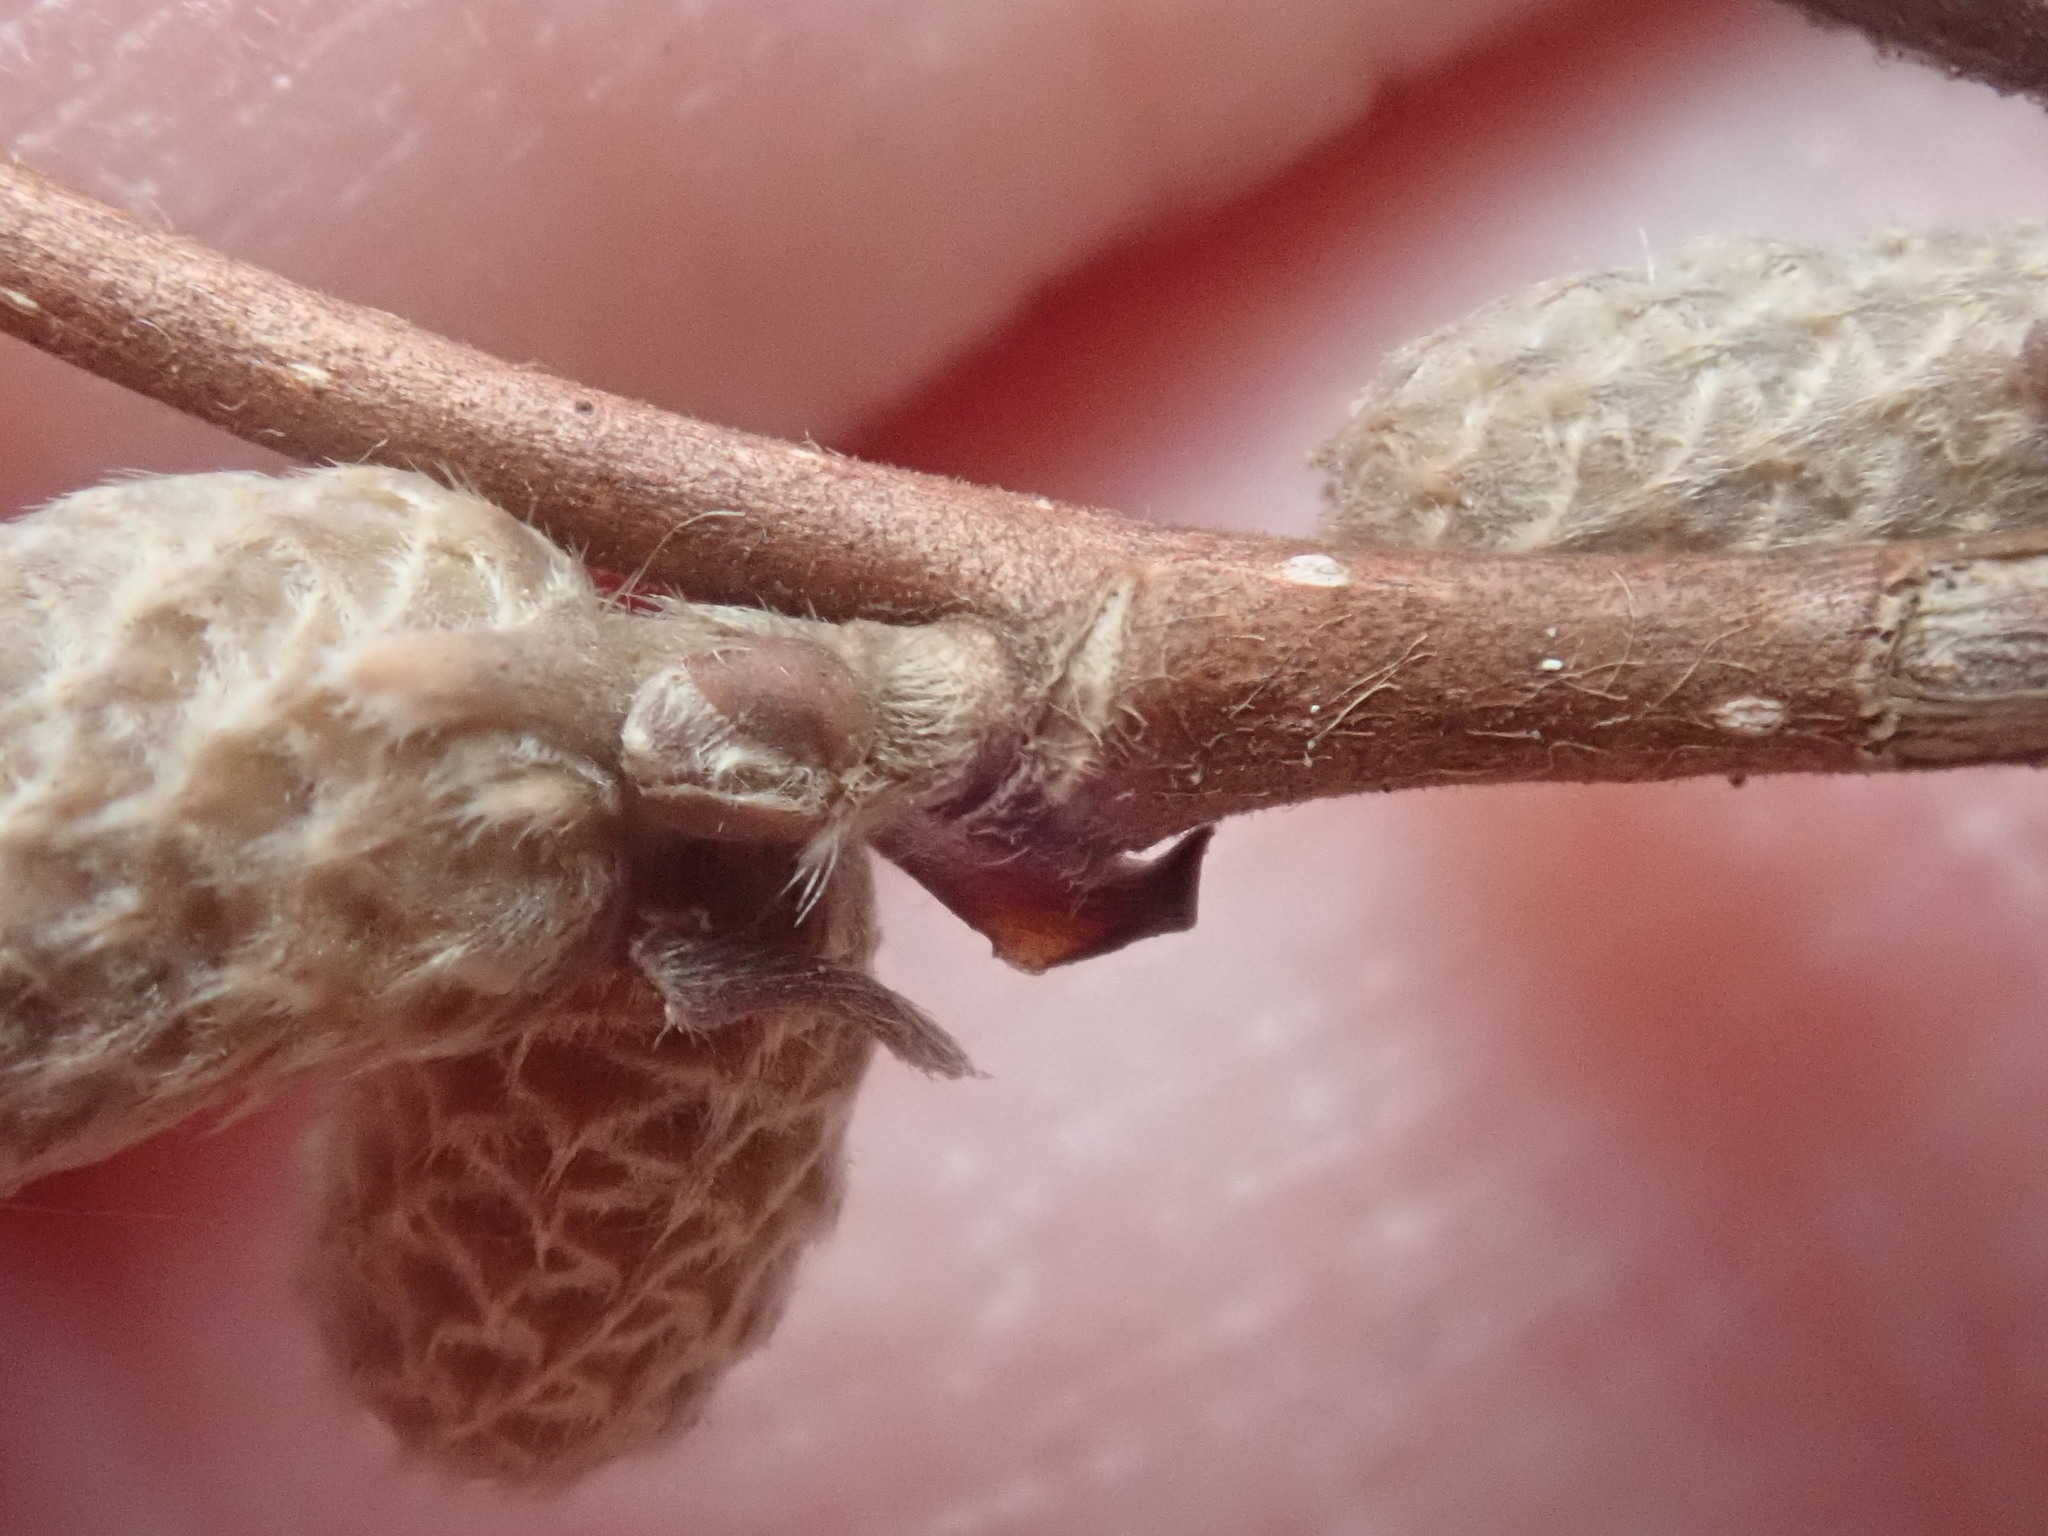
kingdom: Plantae
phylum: Tracheophyta
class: Magnoliopsida
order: Fagales
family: Betulaceae
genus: Corylus
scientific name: Corylus cornuta
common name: Beaked hazel
